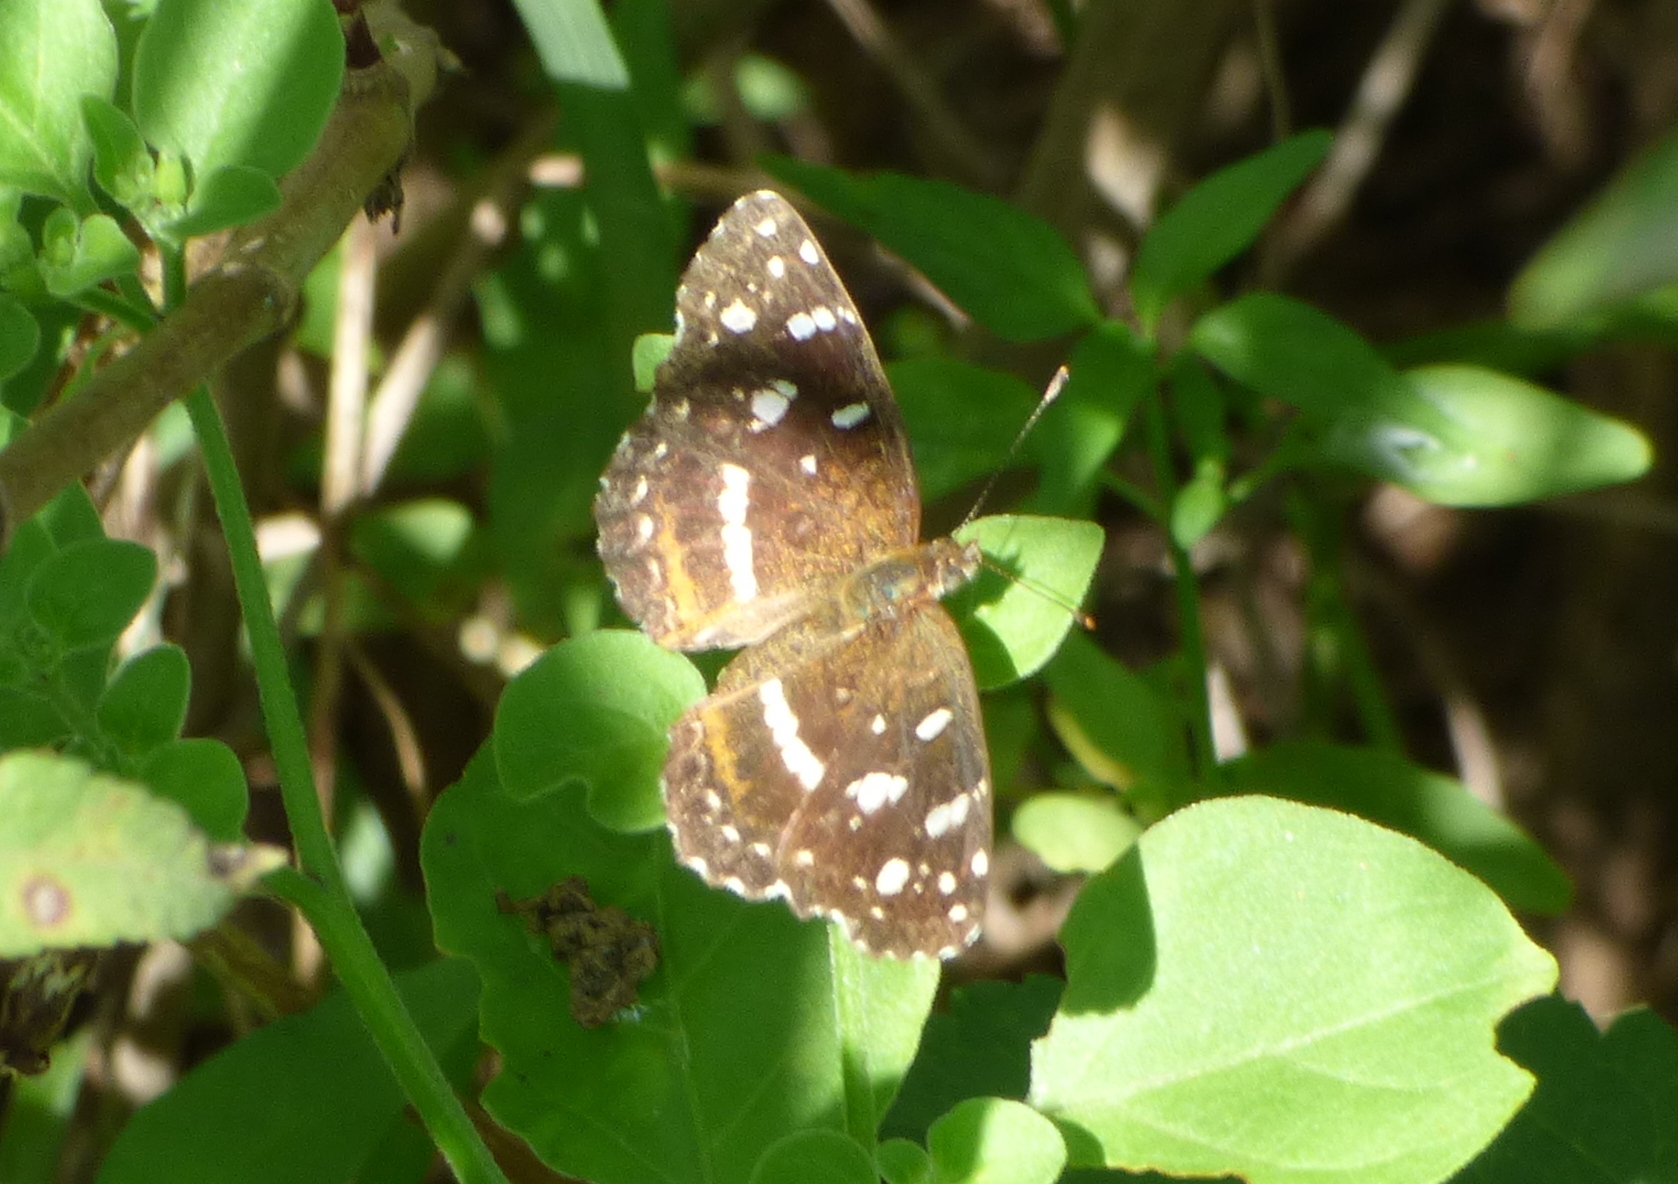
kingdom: Animalia
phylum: Arthropoda
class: Insecta
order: Lepidoptera
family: Nymphalidae
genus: Ortilia
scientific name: Ortilia ithra
